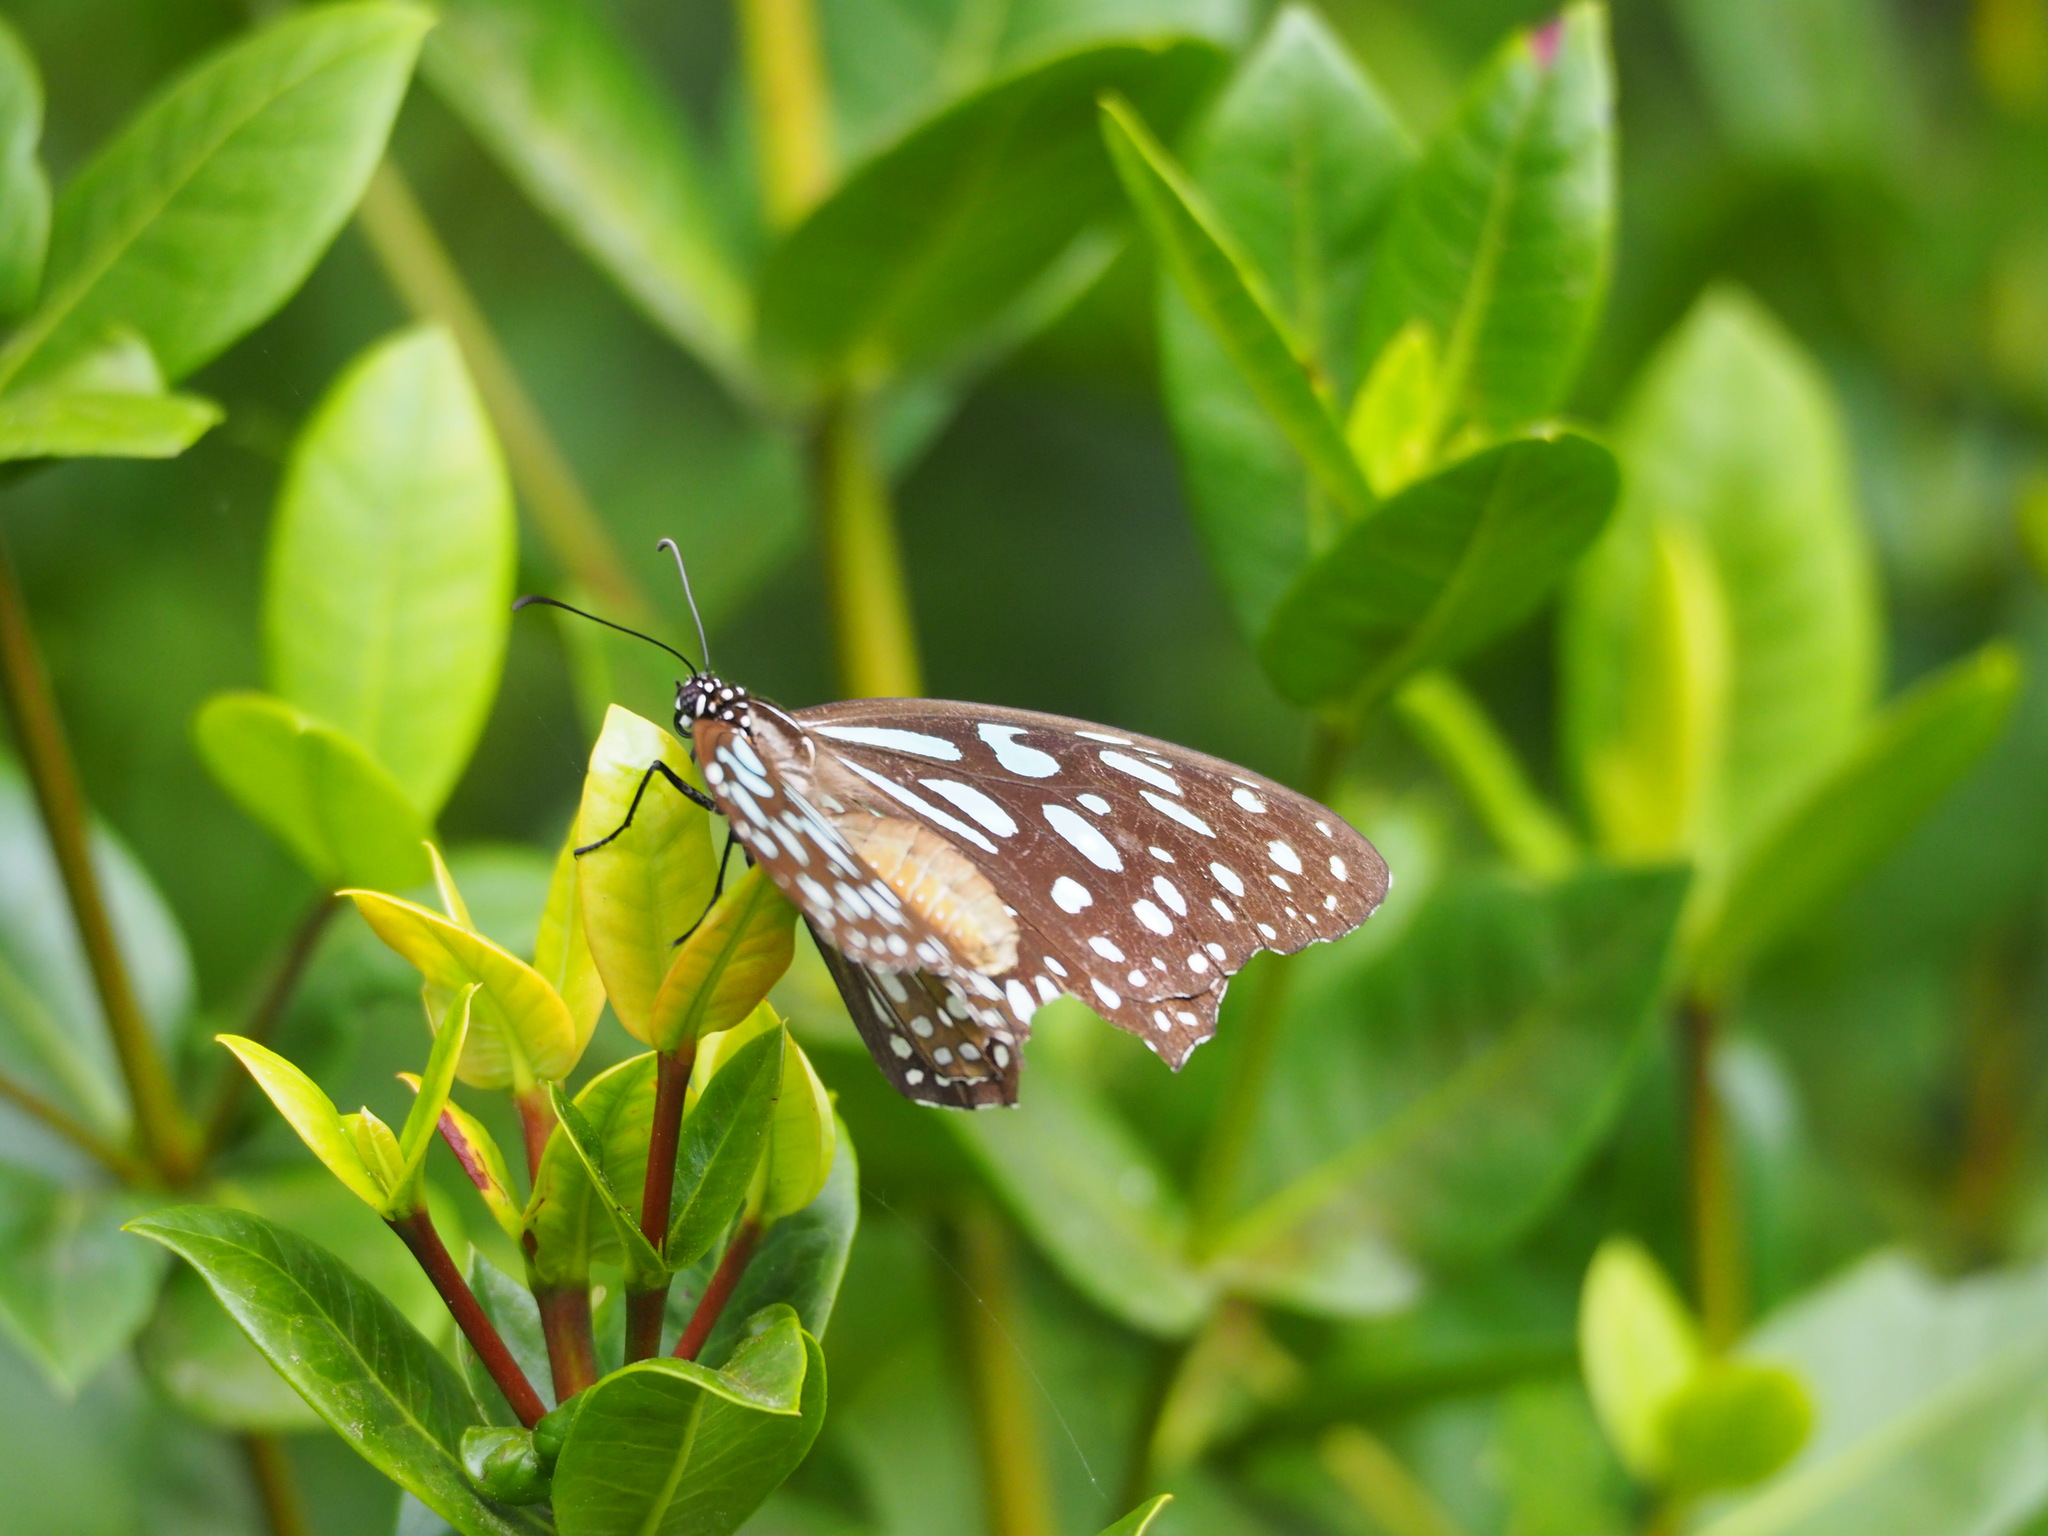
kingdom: Animalia
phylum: Arthropoda
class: Insecta
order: Lepidoptera
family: Nymphalidae
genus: Tirumala
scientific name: Tirumala limniace
